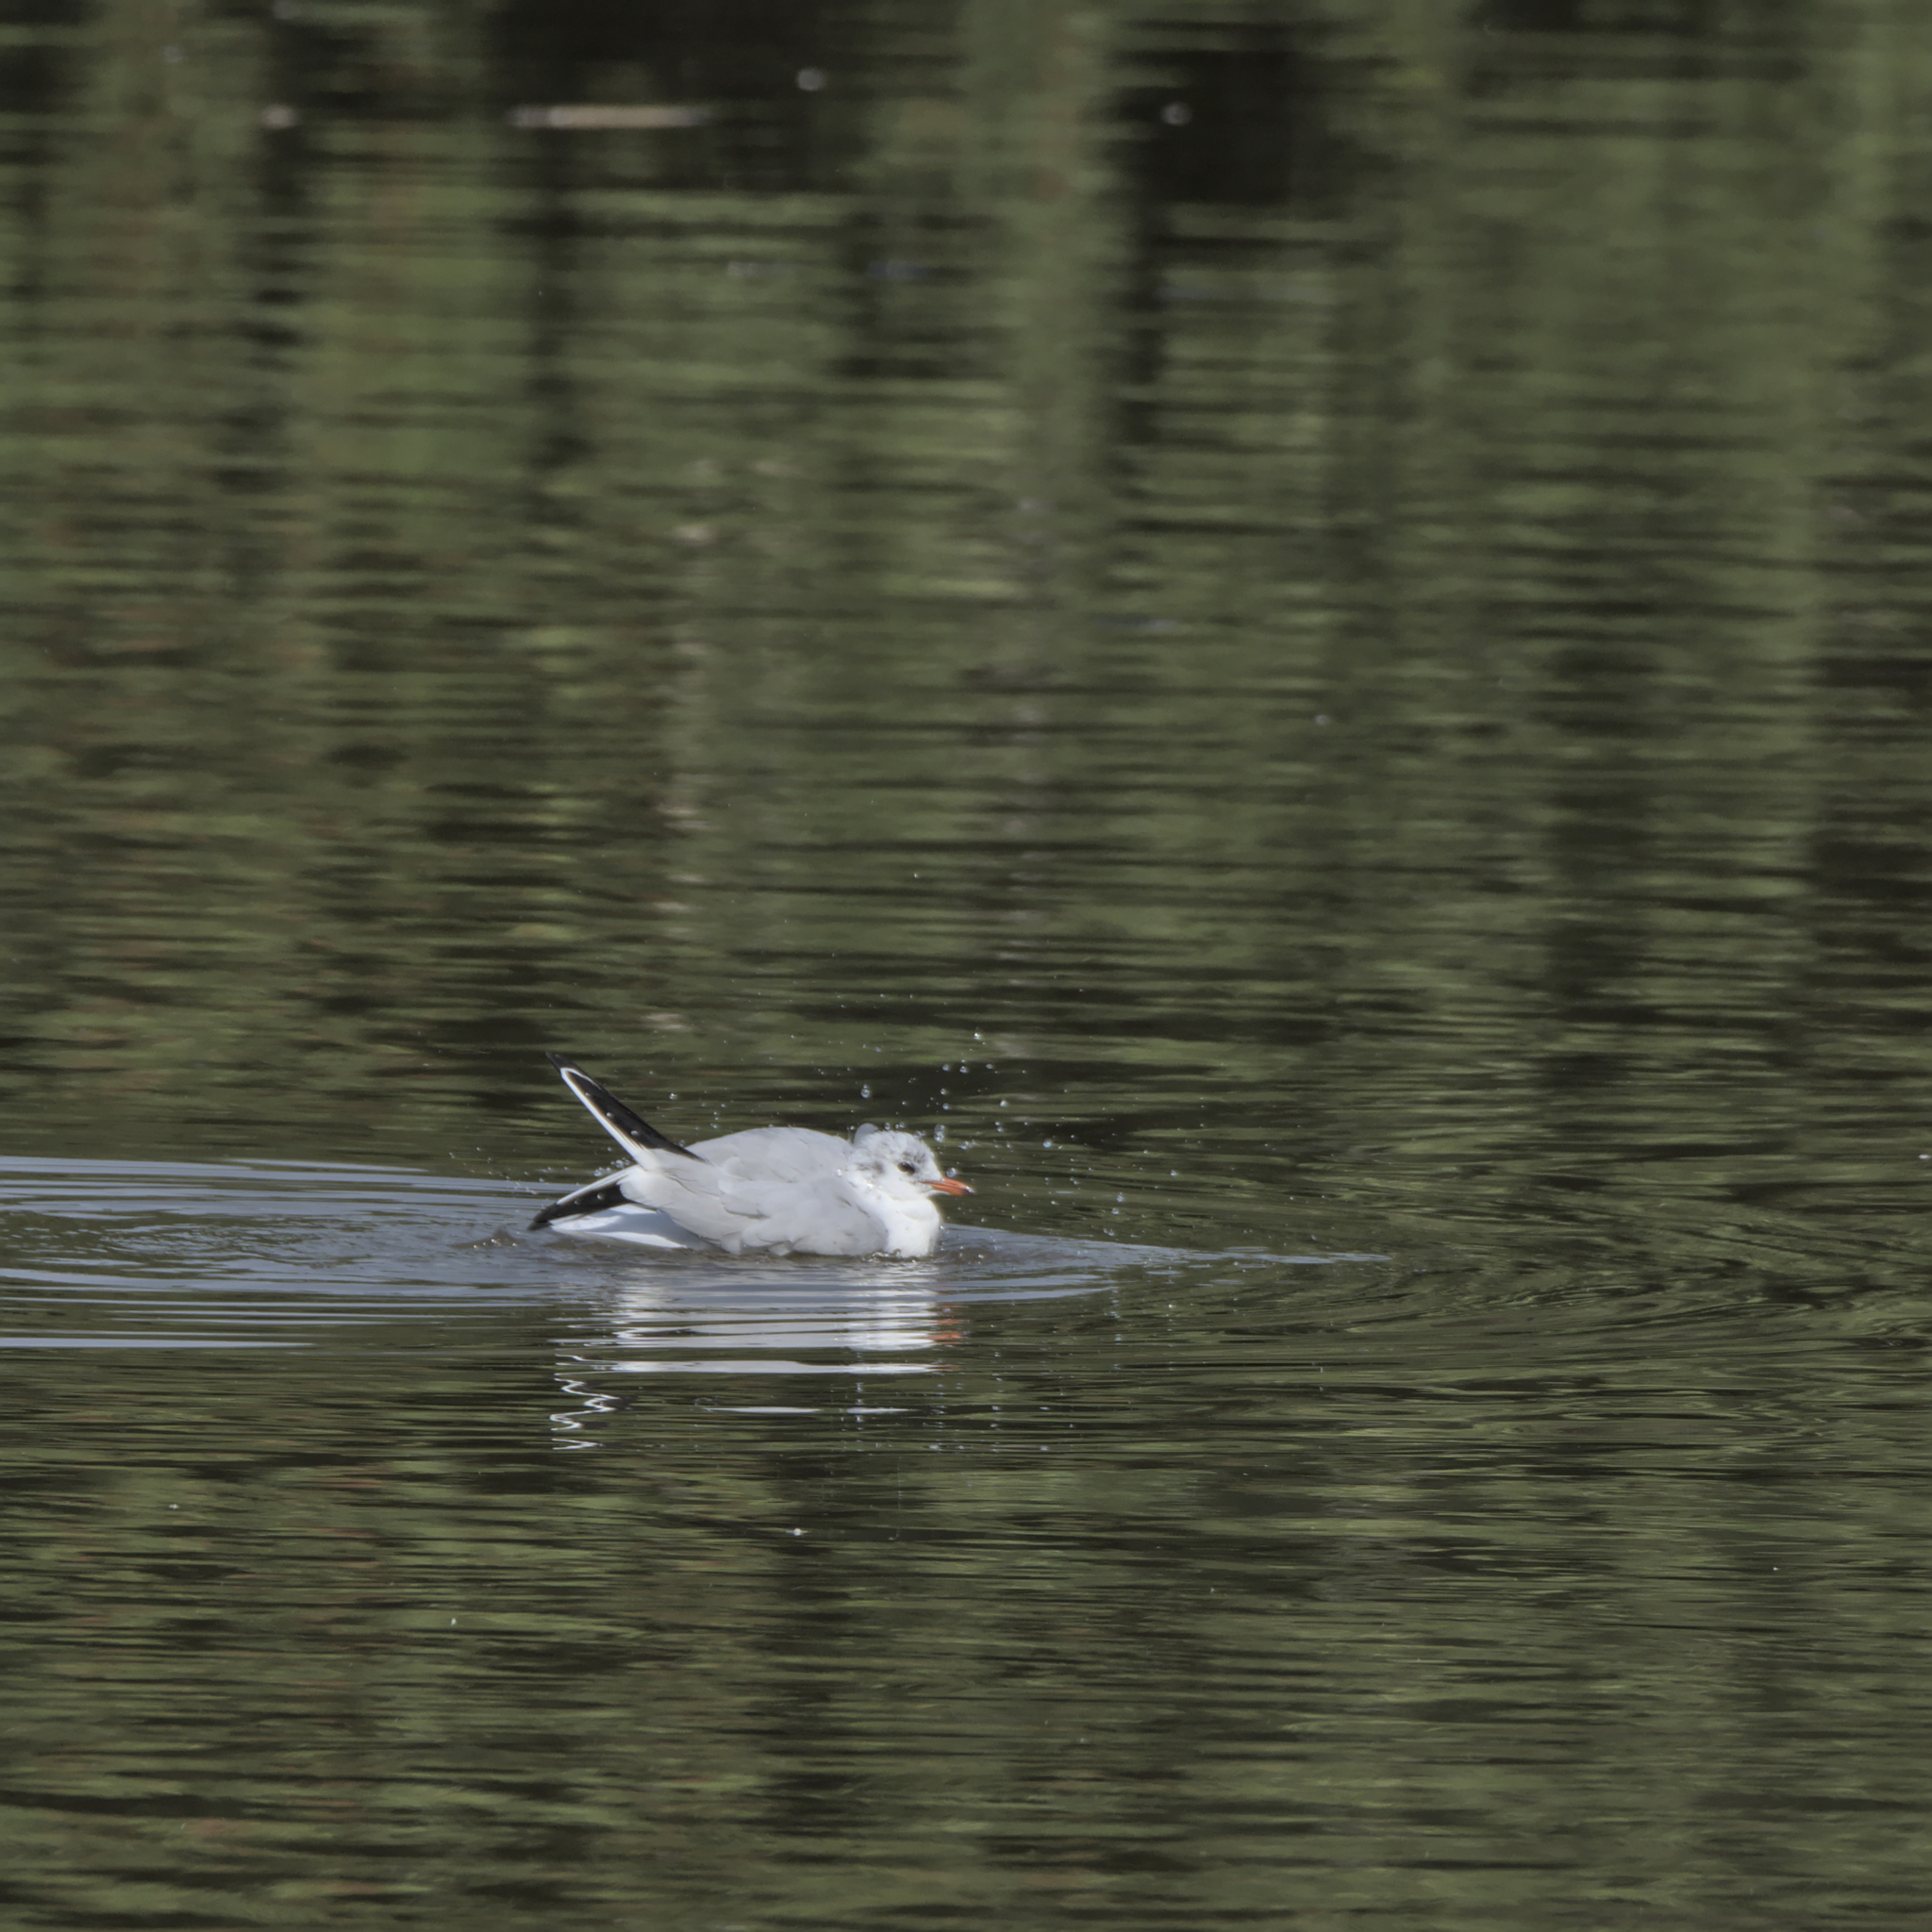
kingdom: Animalia
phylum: Chordata
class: Aves
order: Charadriiformes
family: Laridae
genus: Chroicocephalus
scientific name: Chroicocephalus ridibundus
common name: Black-headed gull
